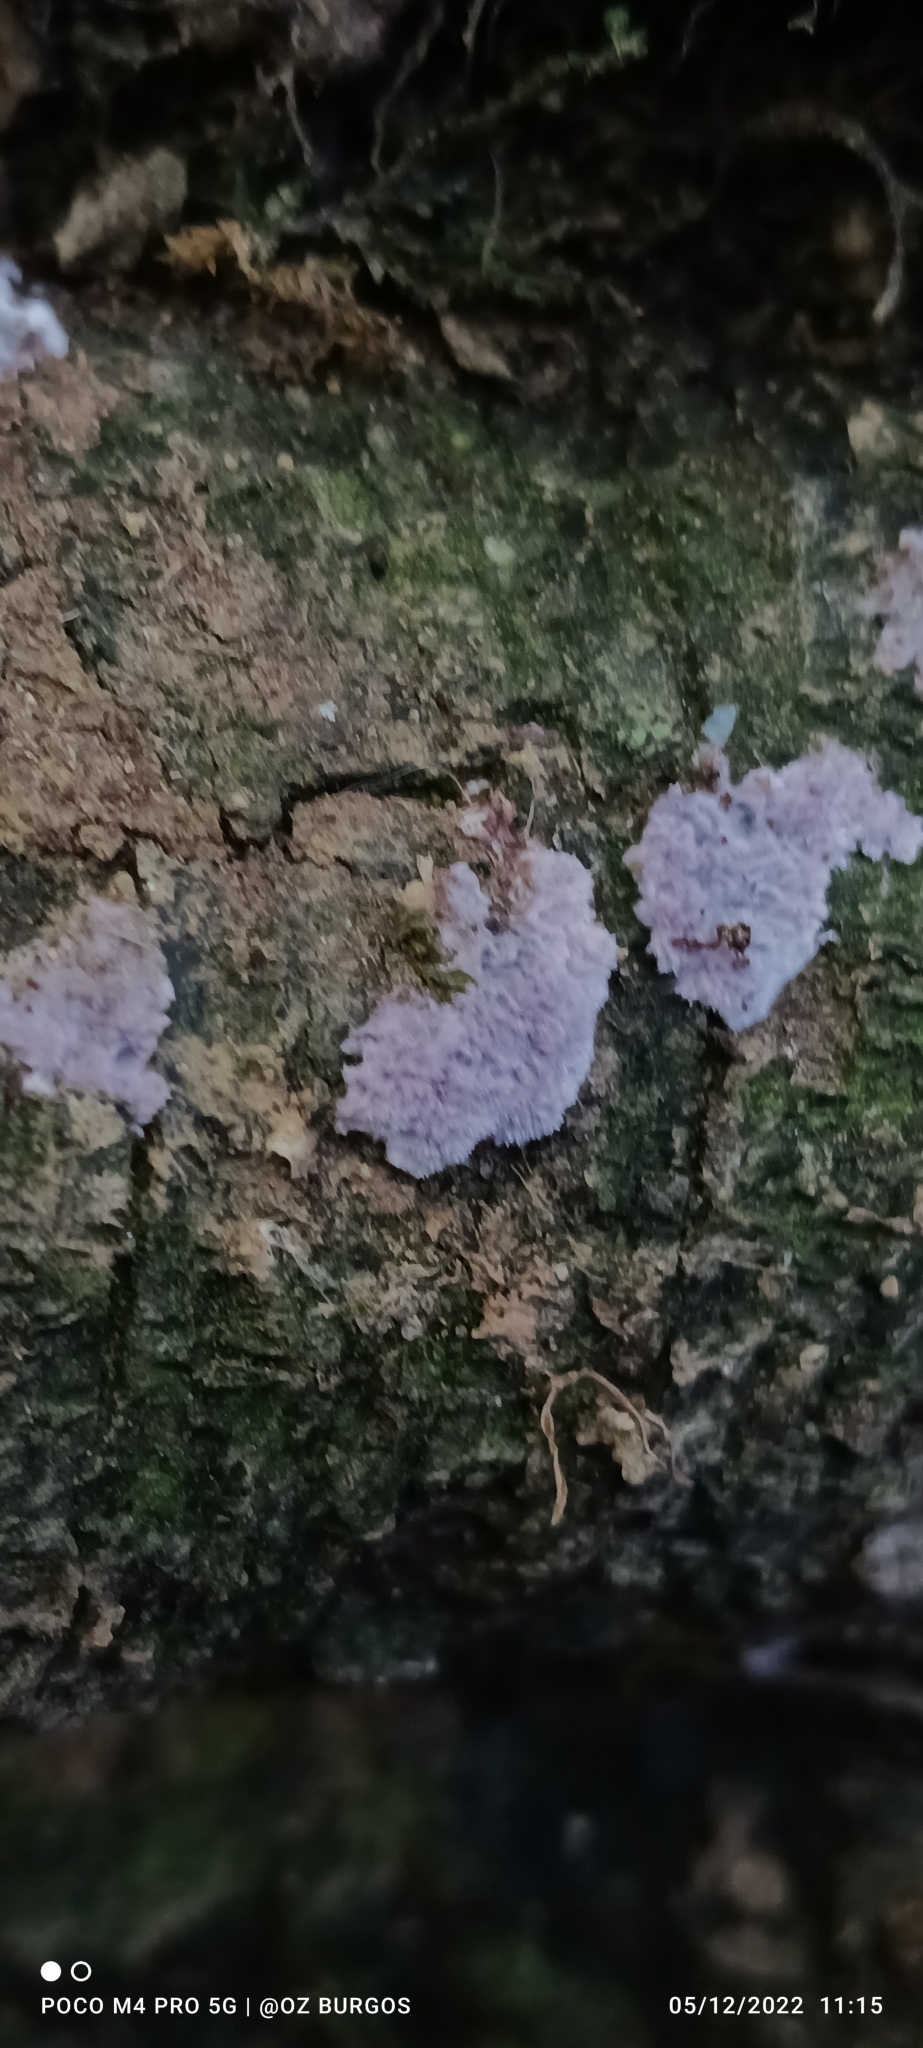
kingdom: Fungi
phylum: Basidiomycota
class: Agaricomycetes
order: Corticiales
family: Punctulariaceae
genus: Punctularia
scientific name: Punctularia atropurpurascens
